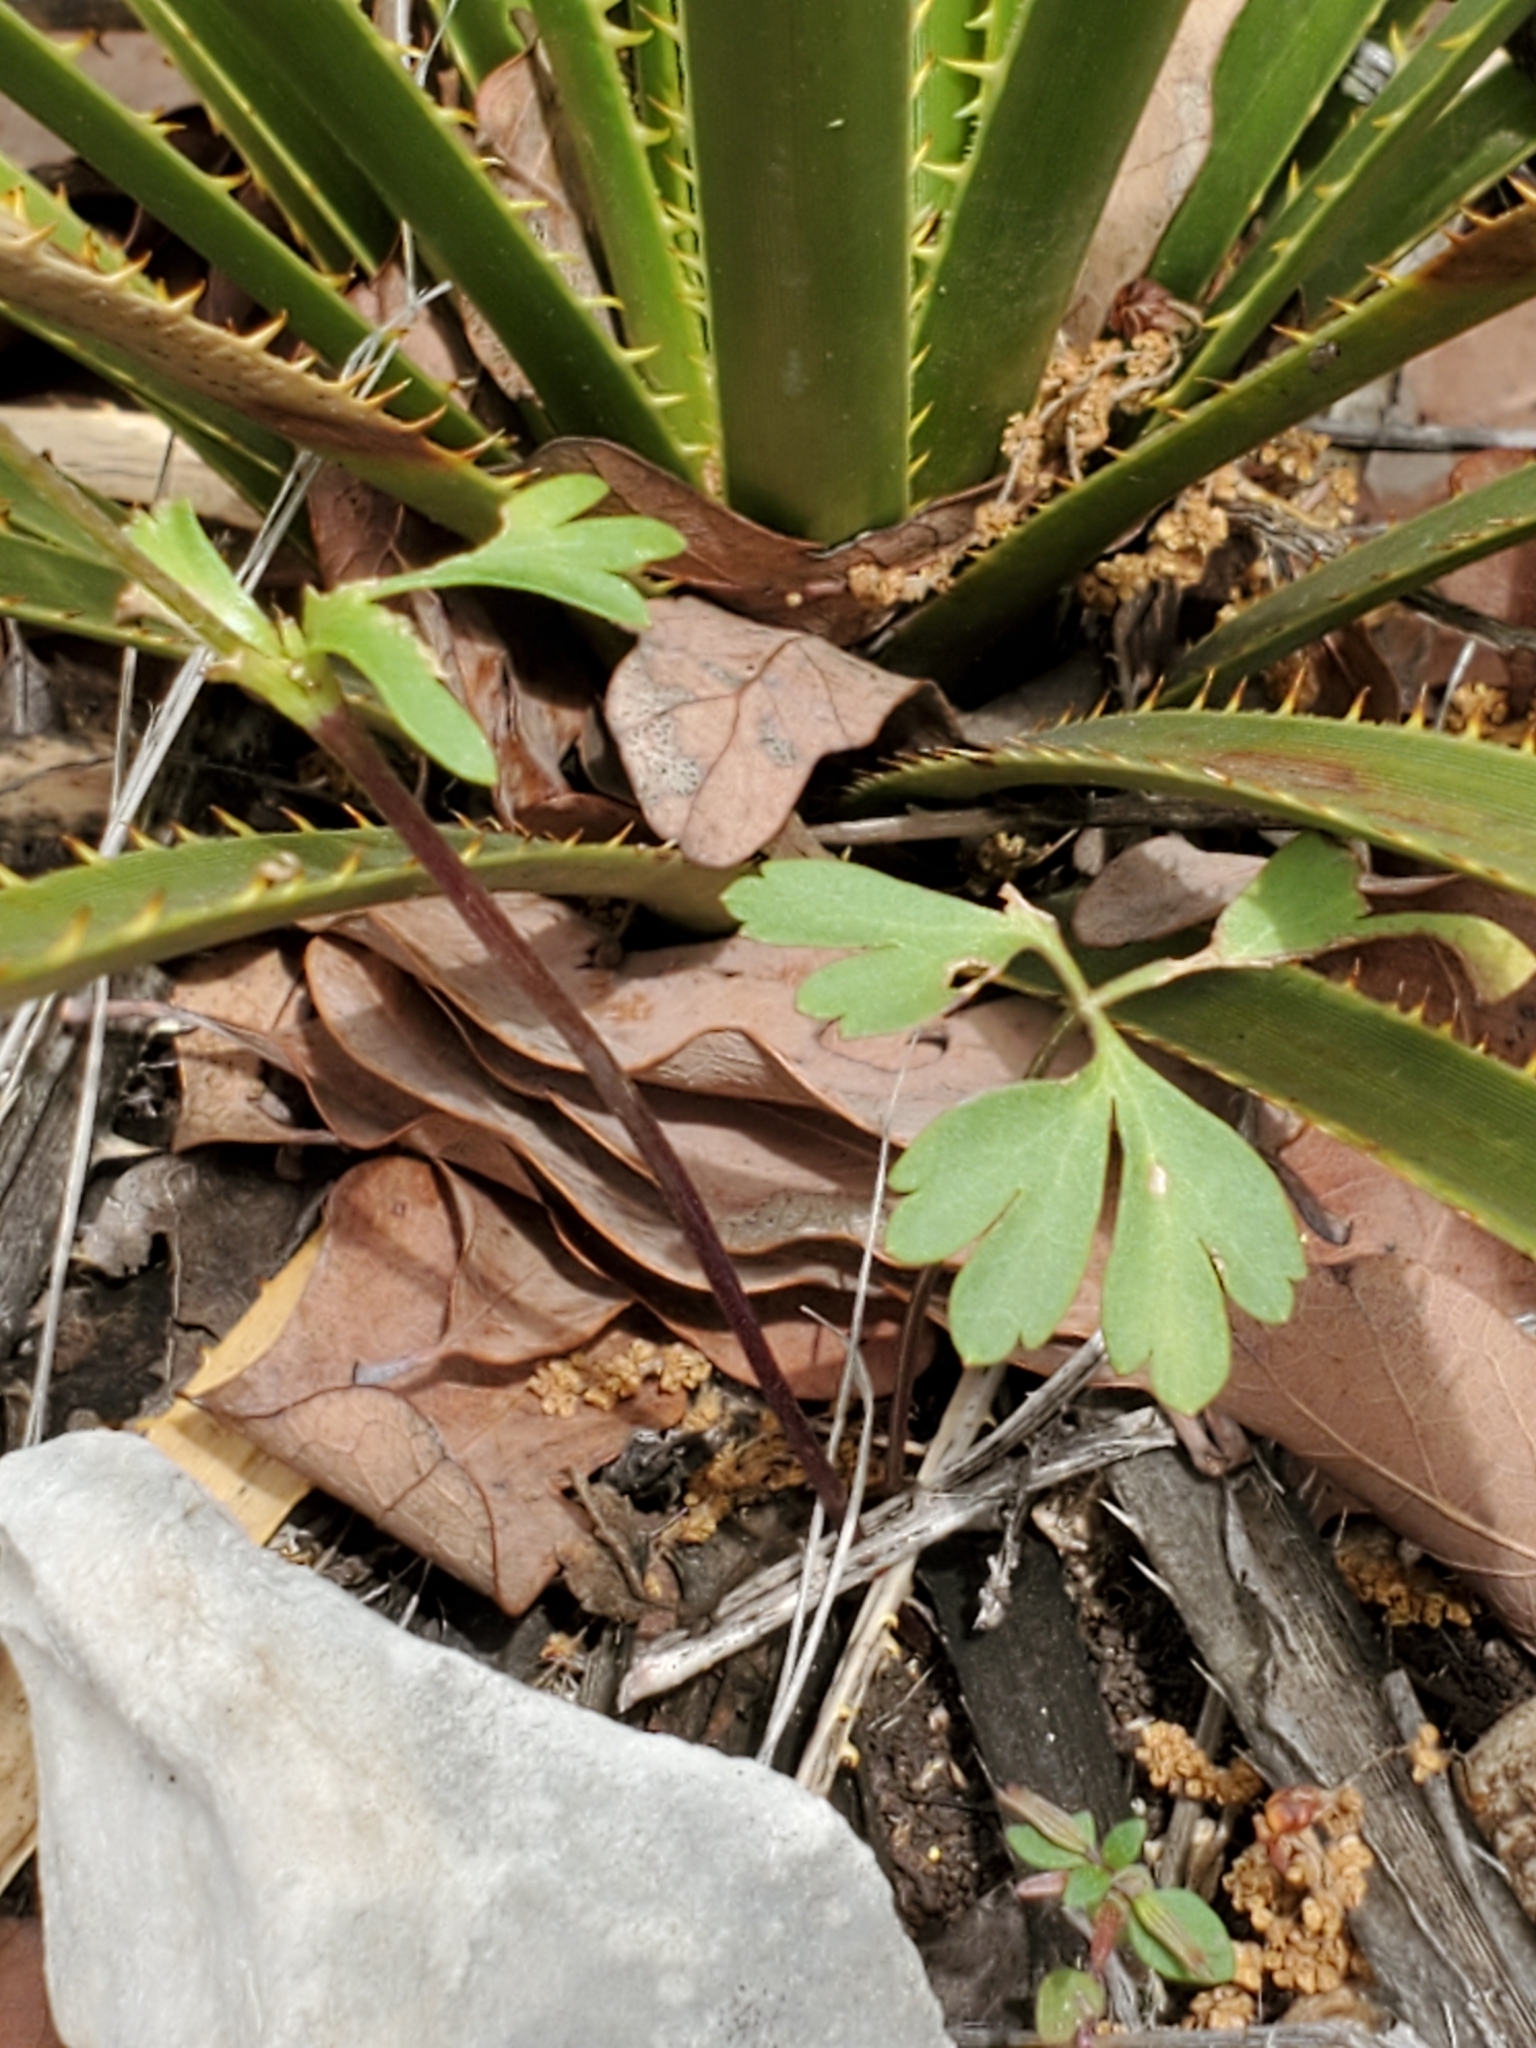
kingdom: Plantae
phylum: Tracheophyta
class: Magnoliopsida
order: Ranunculales
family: Ranunculaceae
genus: Anemone
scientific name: Anemone edwardsiana
